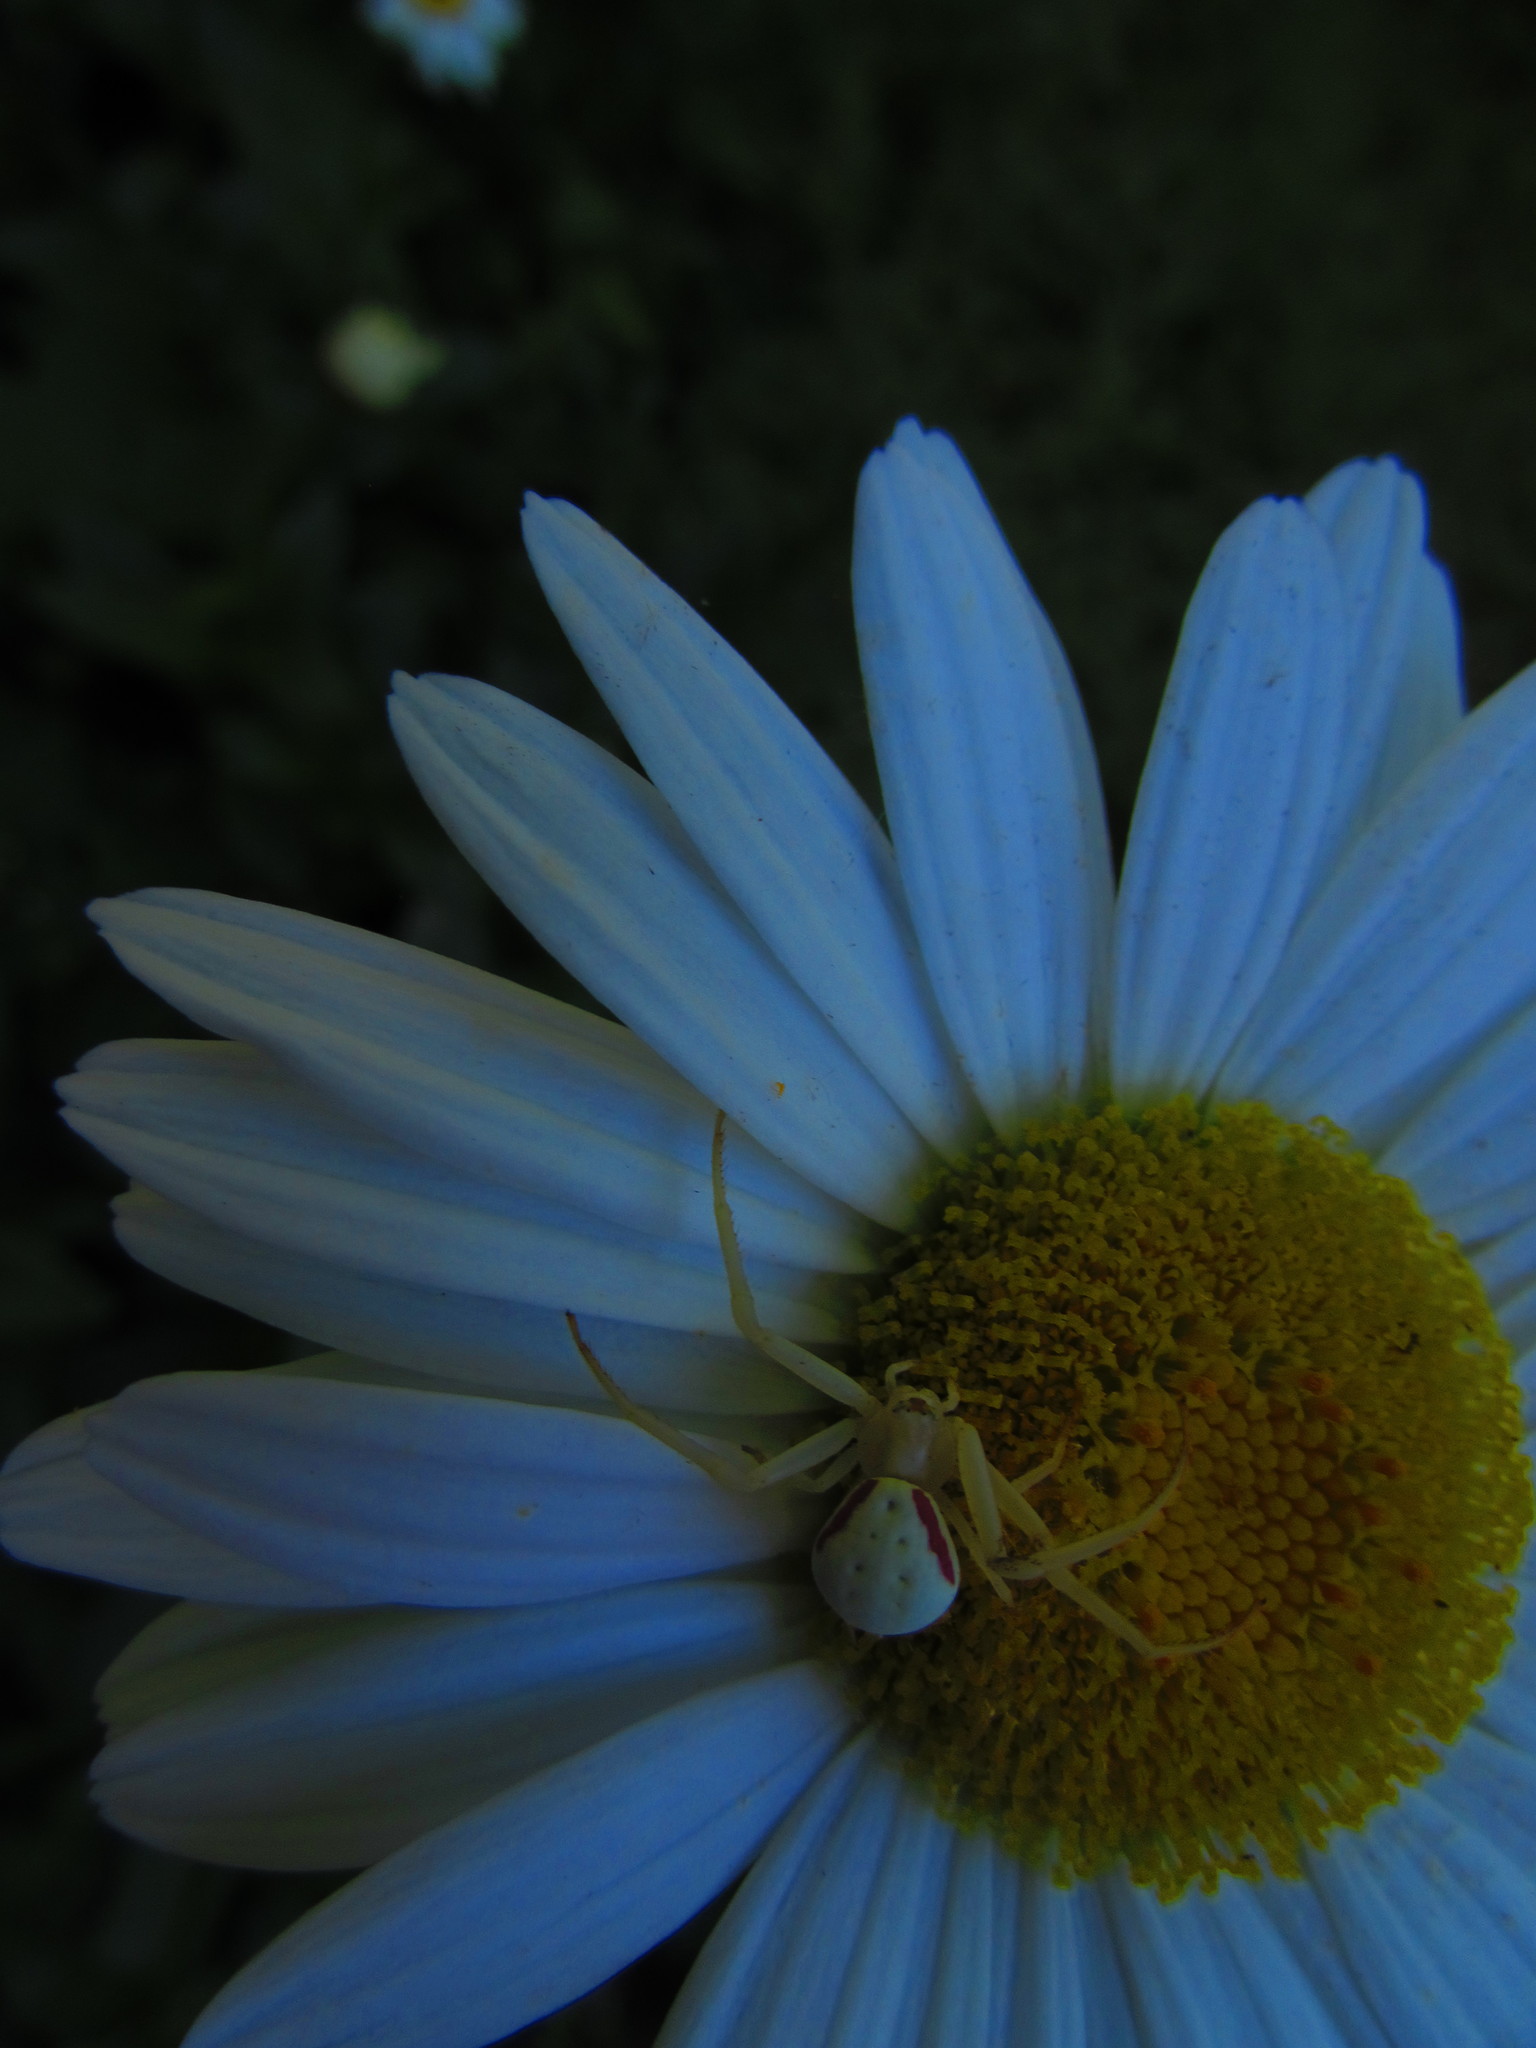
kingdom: Animalia
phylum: Arthropoda
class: Arachnida
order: Araneae
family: Thomisidae
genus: Misumena
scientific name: Misumena vatia
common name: Goldenrod crab spider
